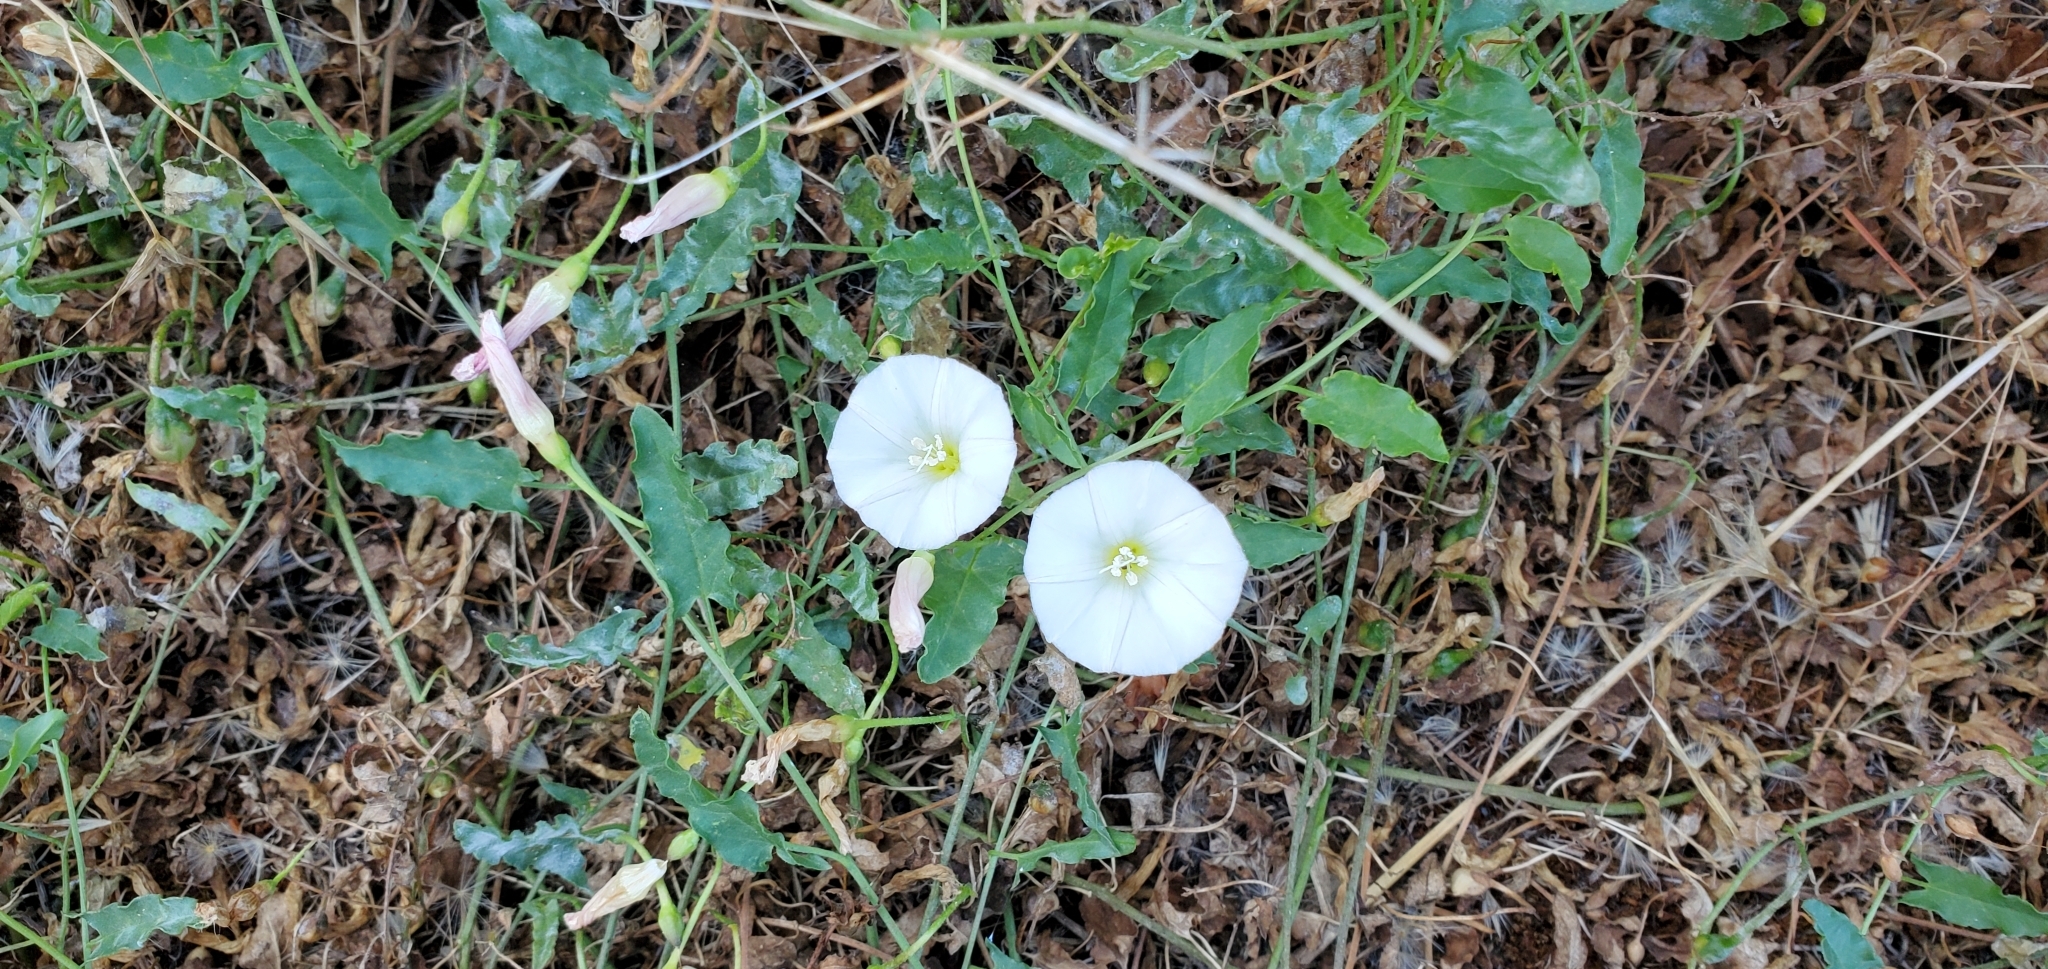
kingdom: Plantae
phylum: Tracheophyta
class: Magnoliopsida
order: Solanales
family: Convolvulaceae
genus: Convolvulus
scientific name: Convolvulus arvensis
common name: Field bindweed
